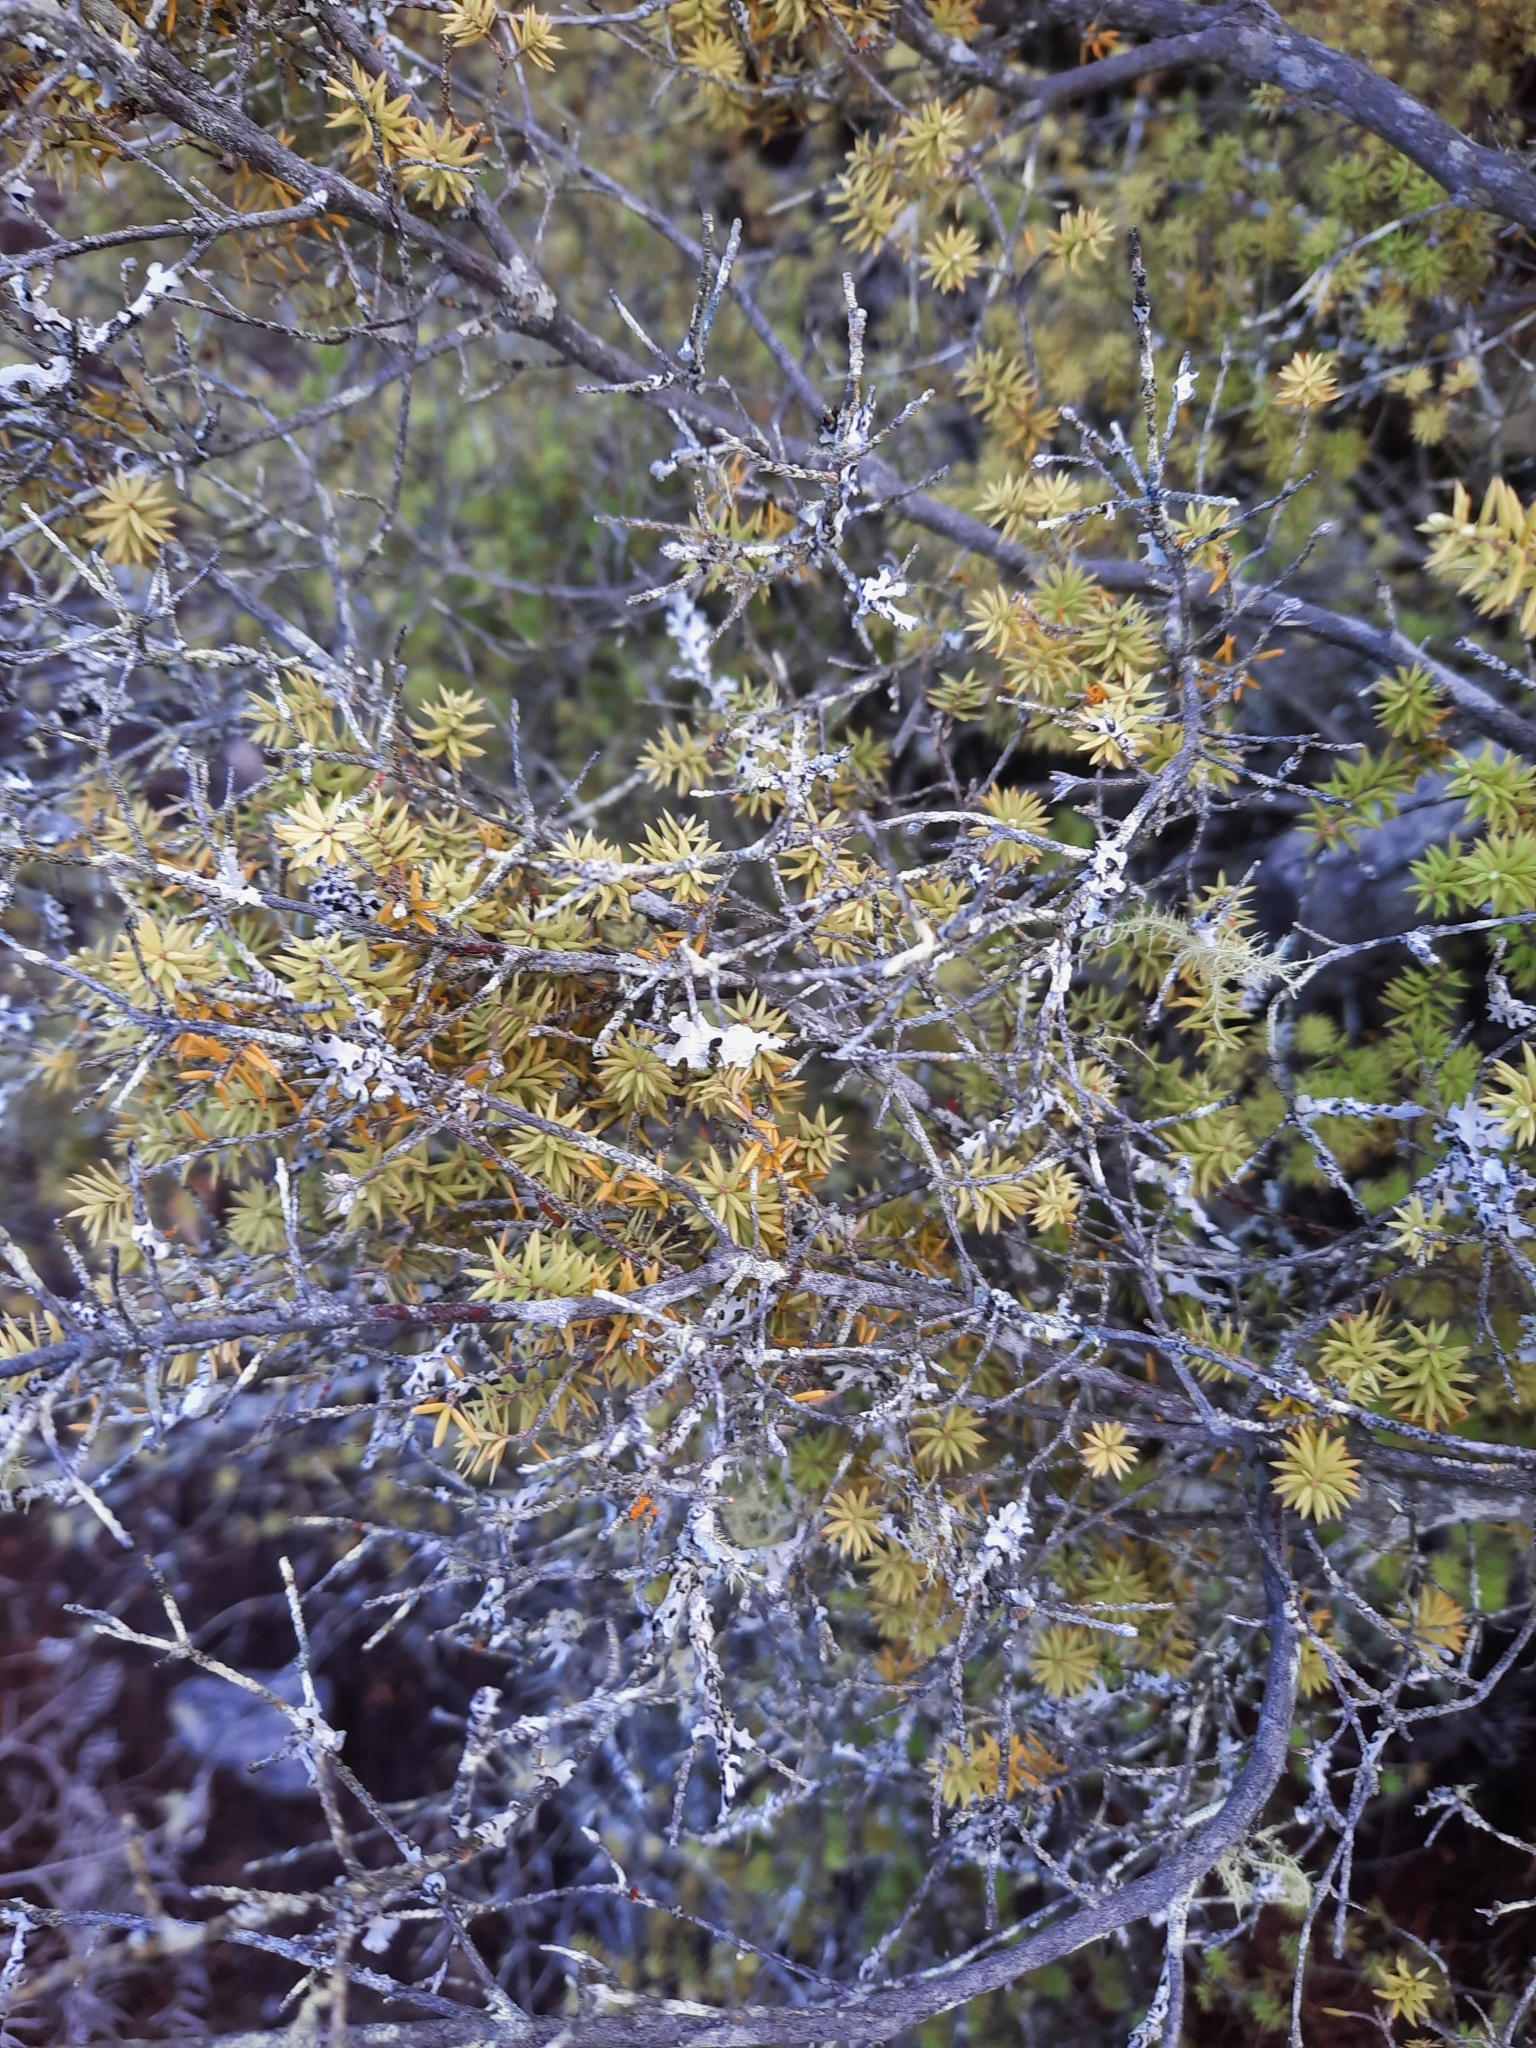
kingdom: Plantae
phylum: Tracheophyta
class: Magnoliopsida
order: Ericales
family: Ericaceae
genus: Leptecophylla
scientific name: Leptecophylla juniperina
